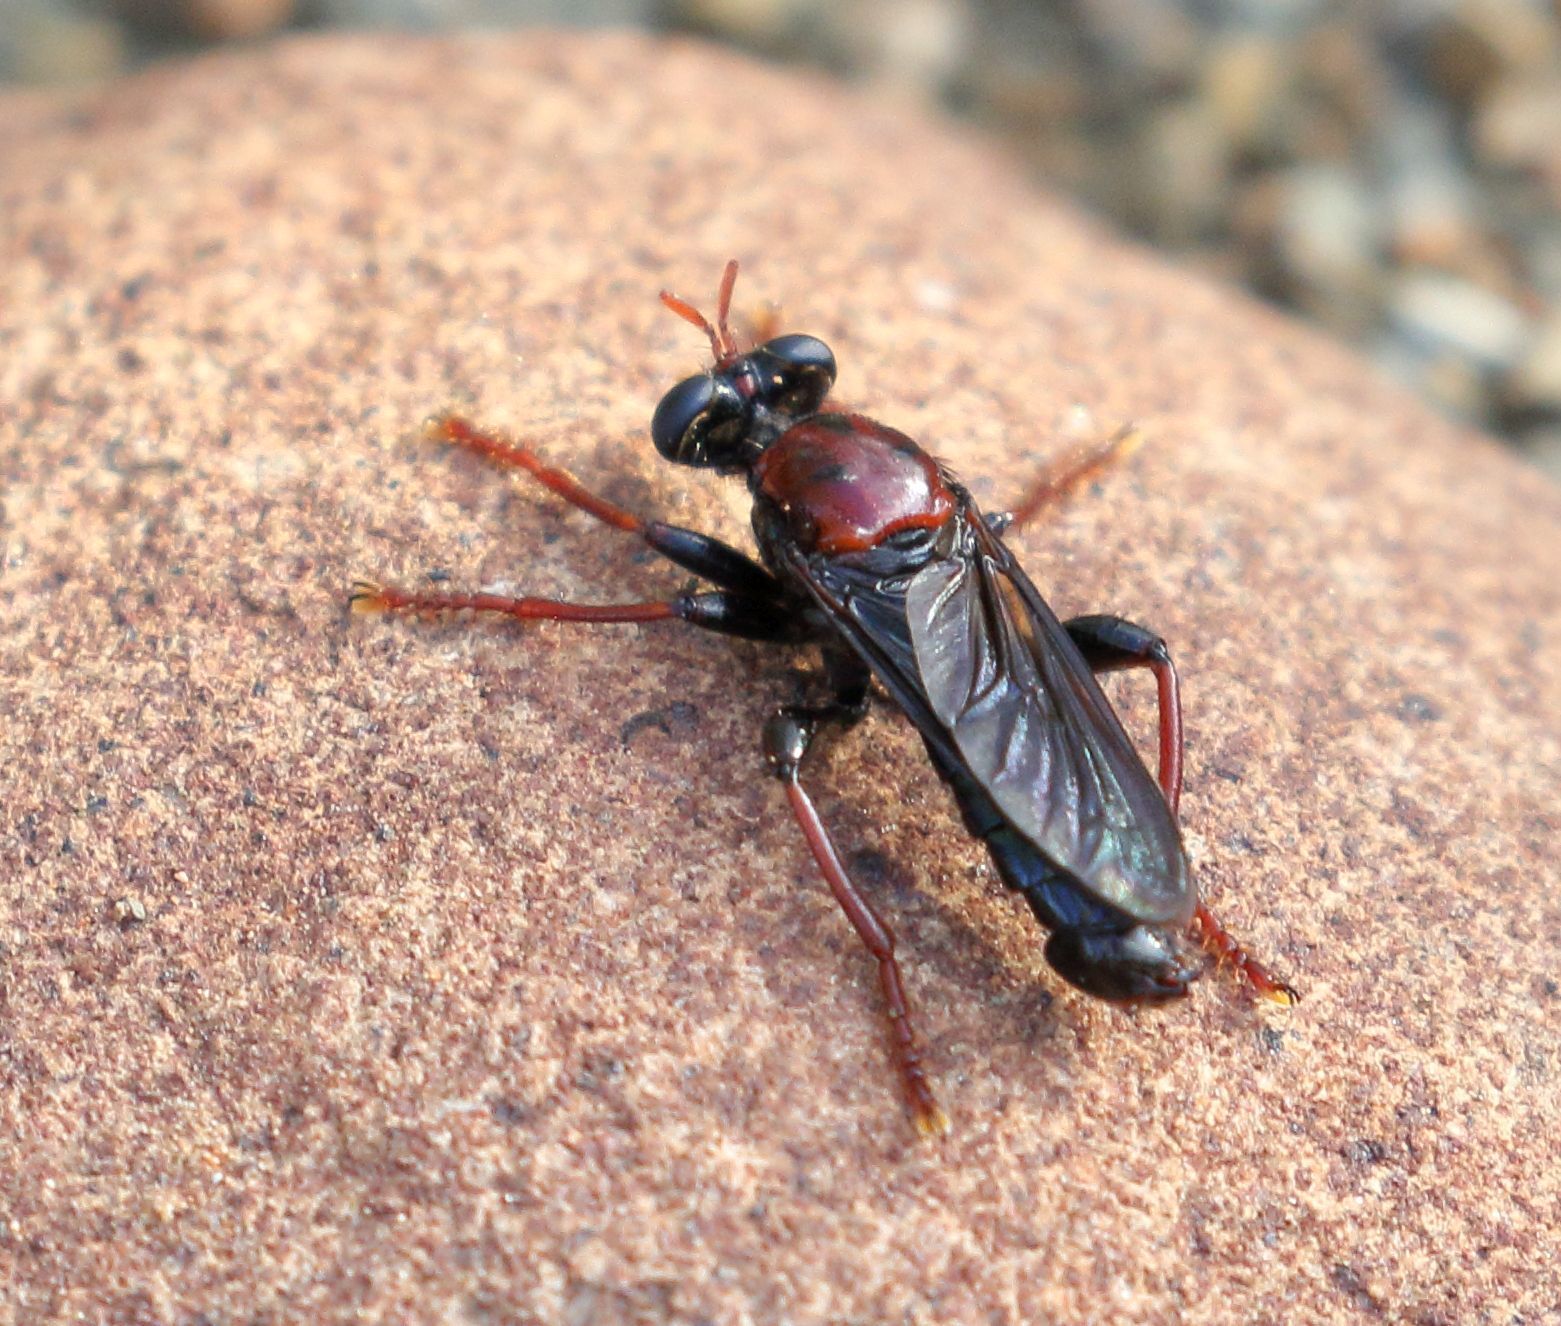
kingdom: Animalia
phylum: Arthropoda
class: Insecta
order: Diptera
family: Asilidae
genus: Stiphrolamyra
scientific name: Stiphrolamyra schoemani
